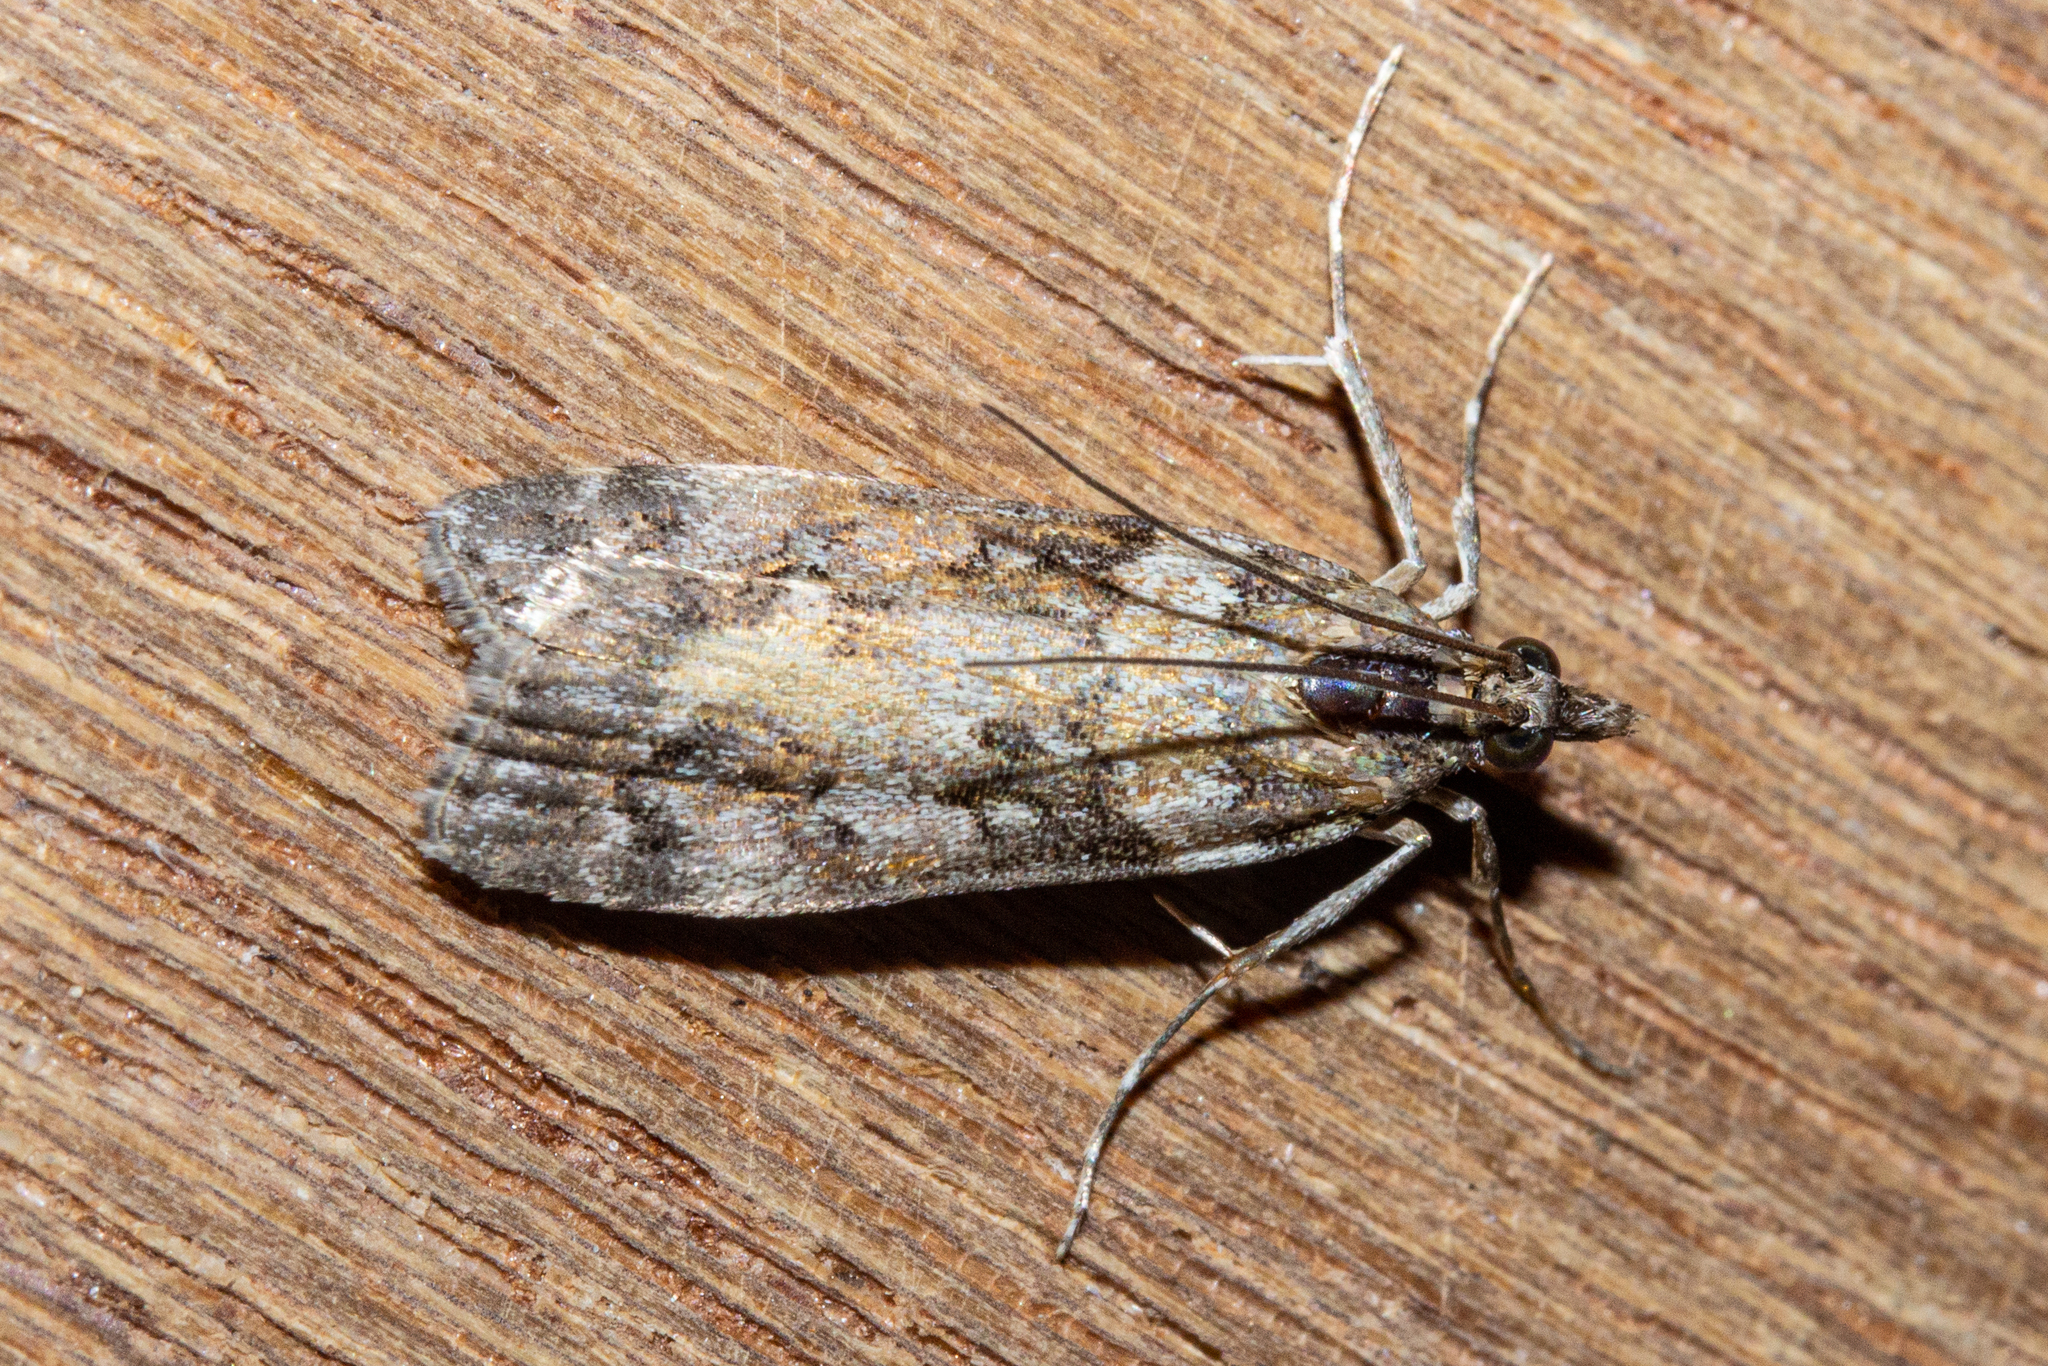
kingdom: Animalia
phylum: Arthropoda
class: Insecta
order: Lepidoptera
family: Crambidae
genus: Eudonia
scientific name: Eudonia submarginalis
